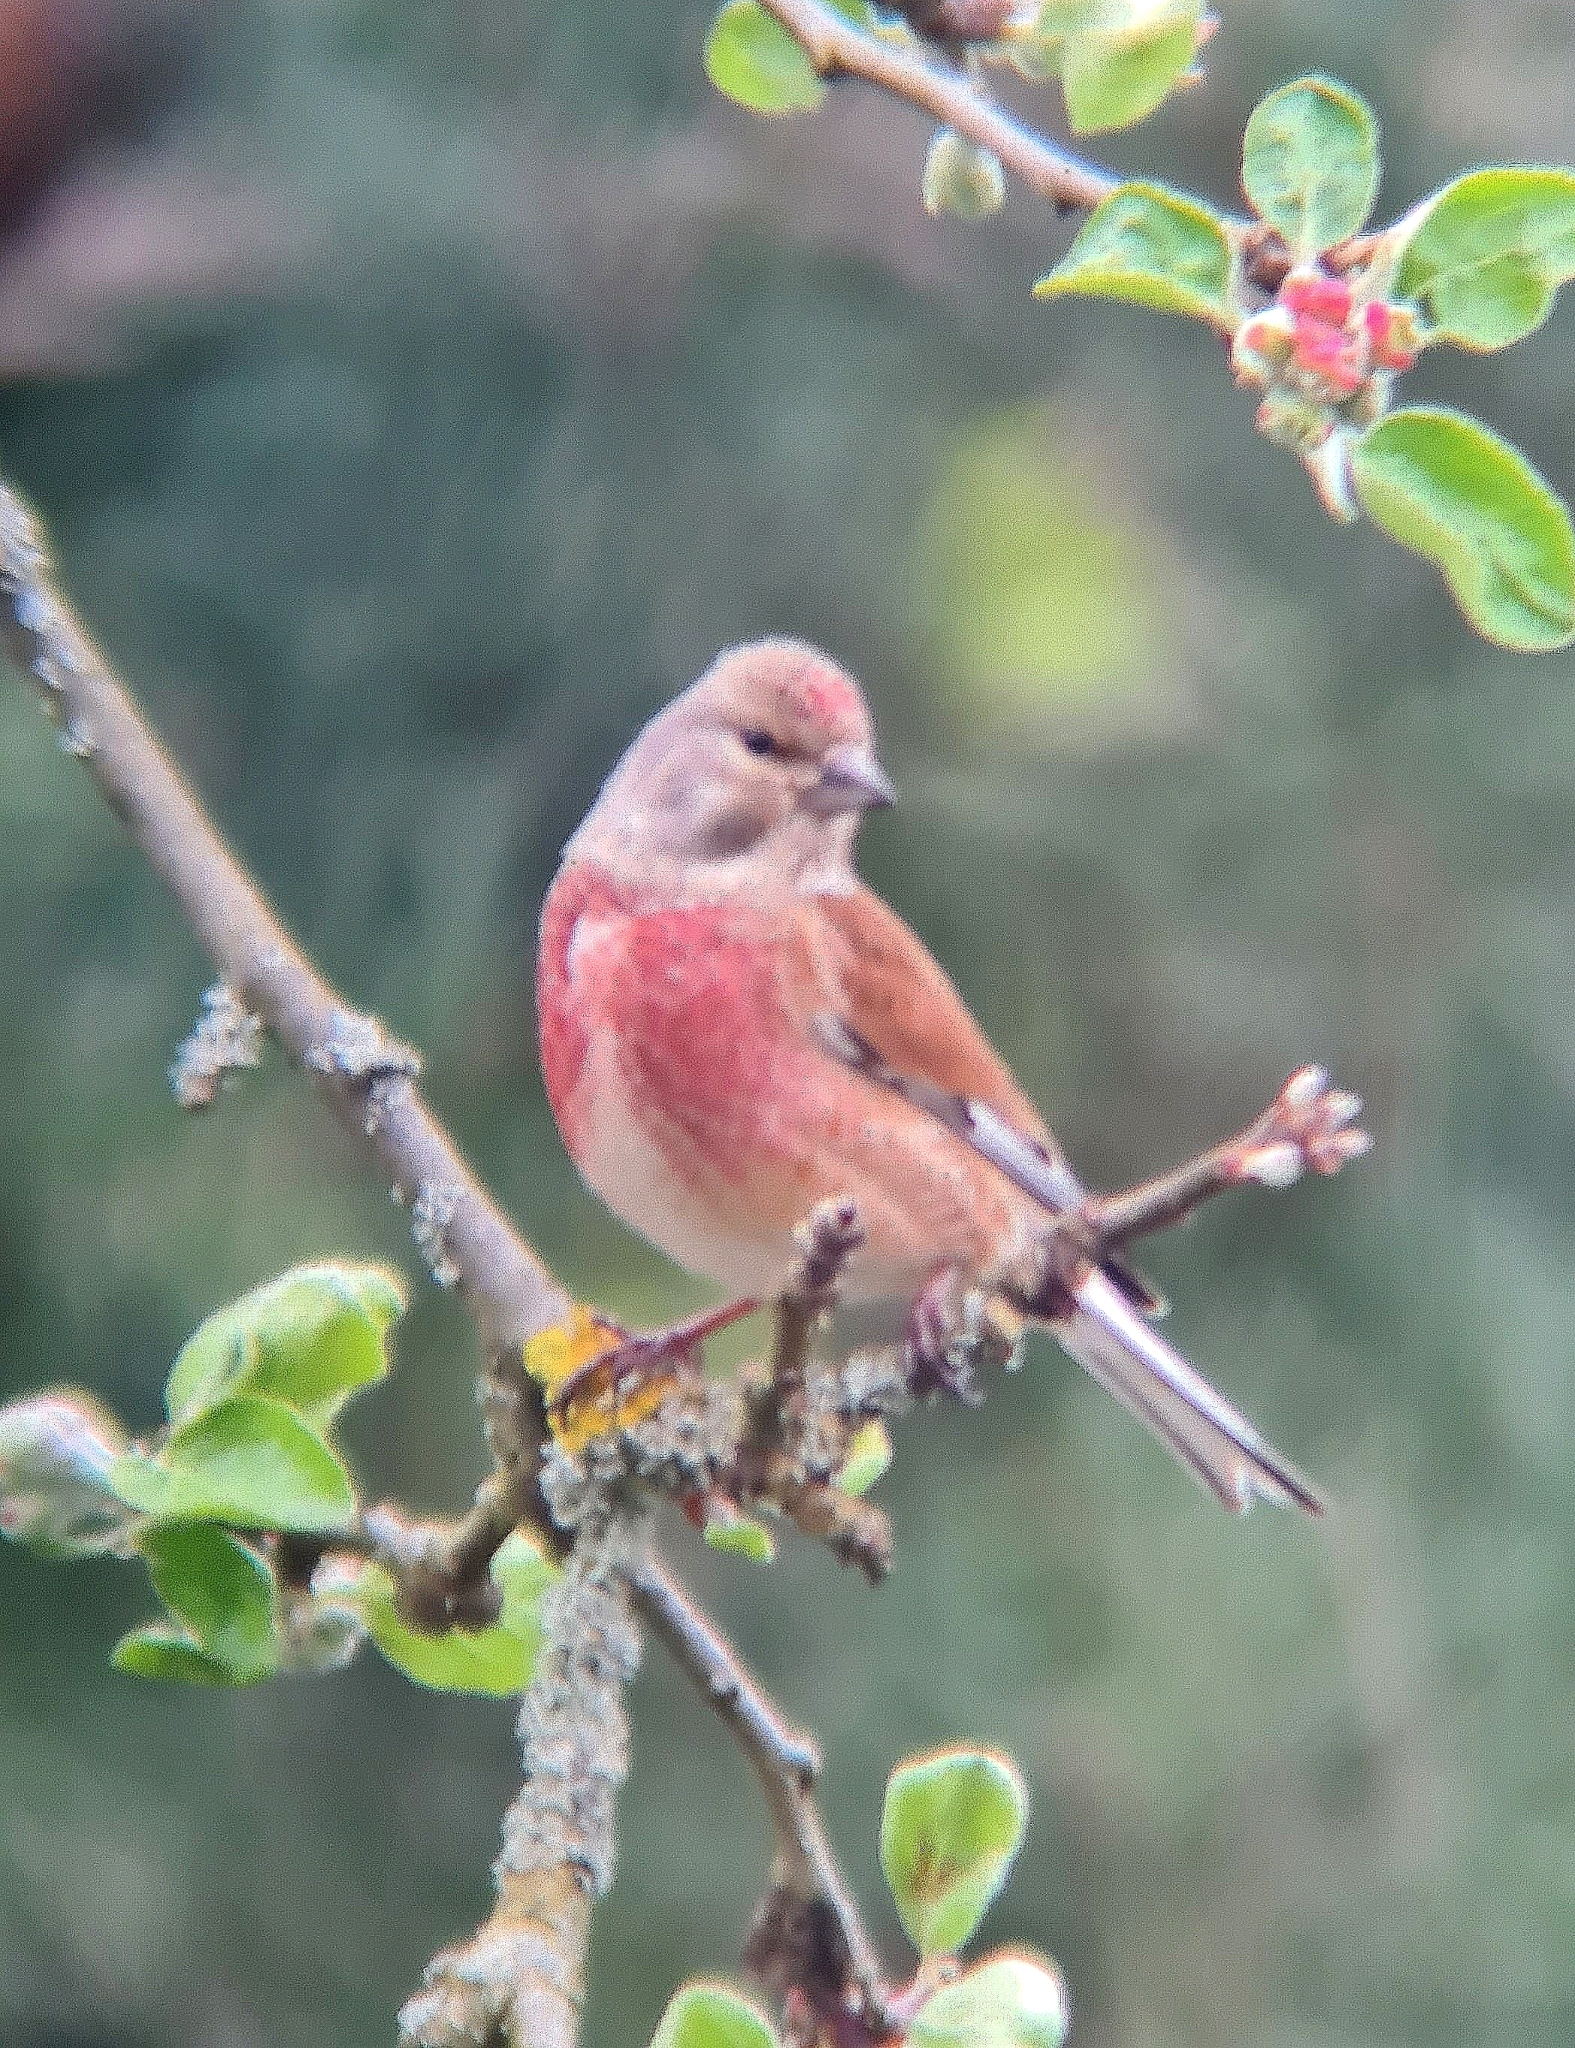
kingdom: Animalia
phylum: Chordata
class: Aves
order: Passeriformes
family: Fringillidae
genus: Linaria
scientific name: Linaria cannabina
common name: Common linnet
